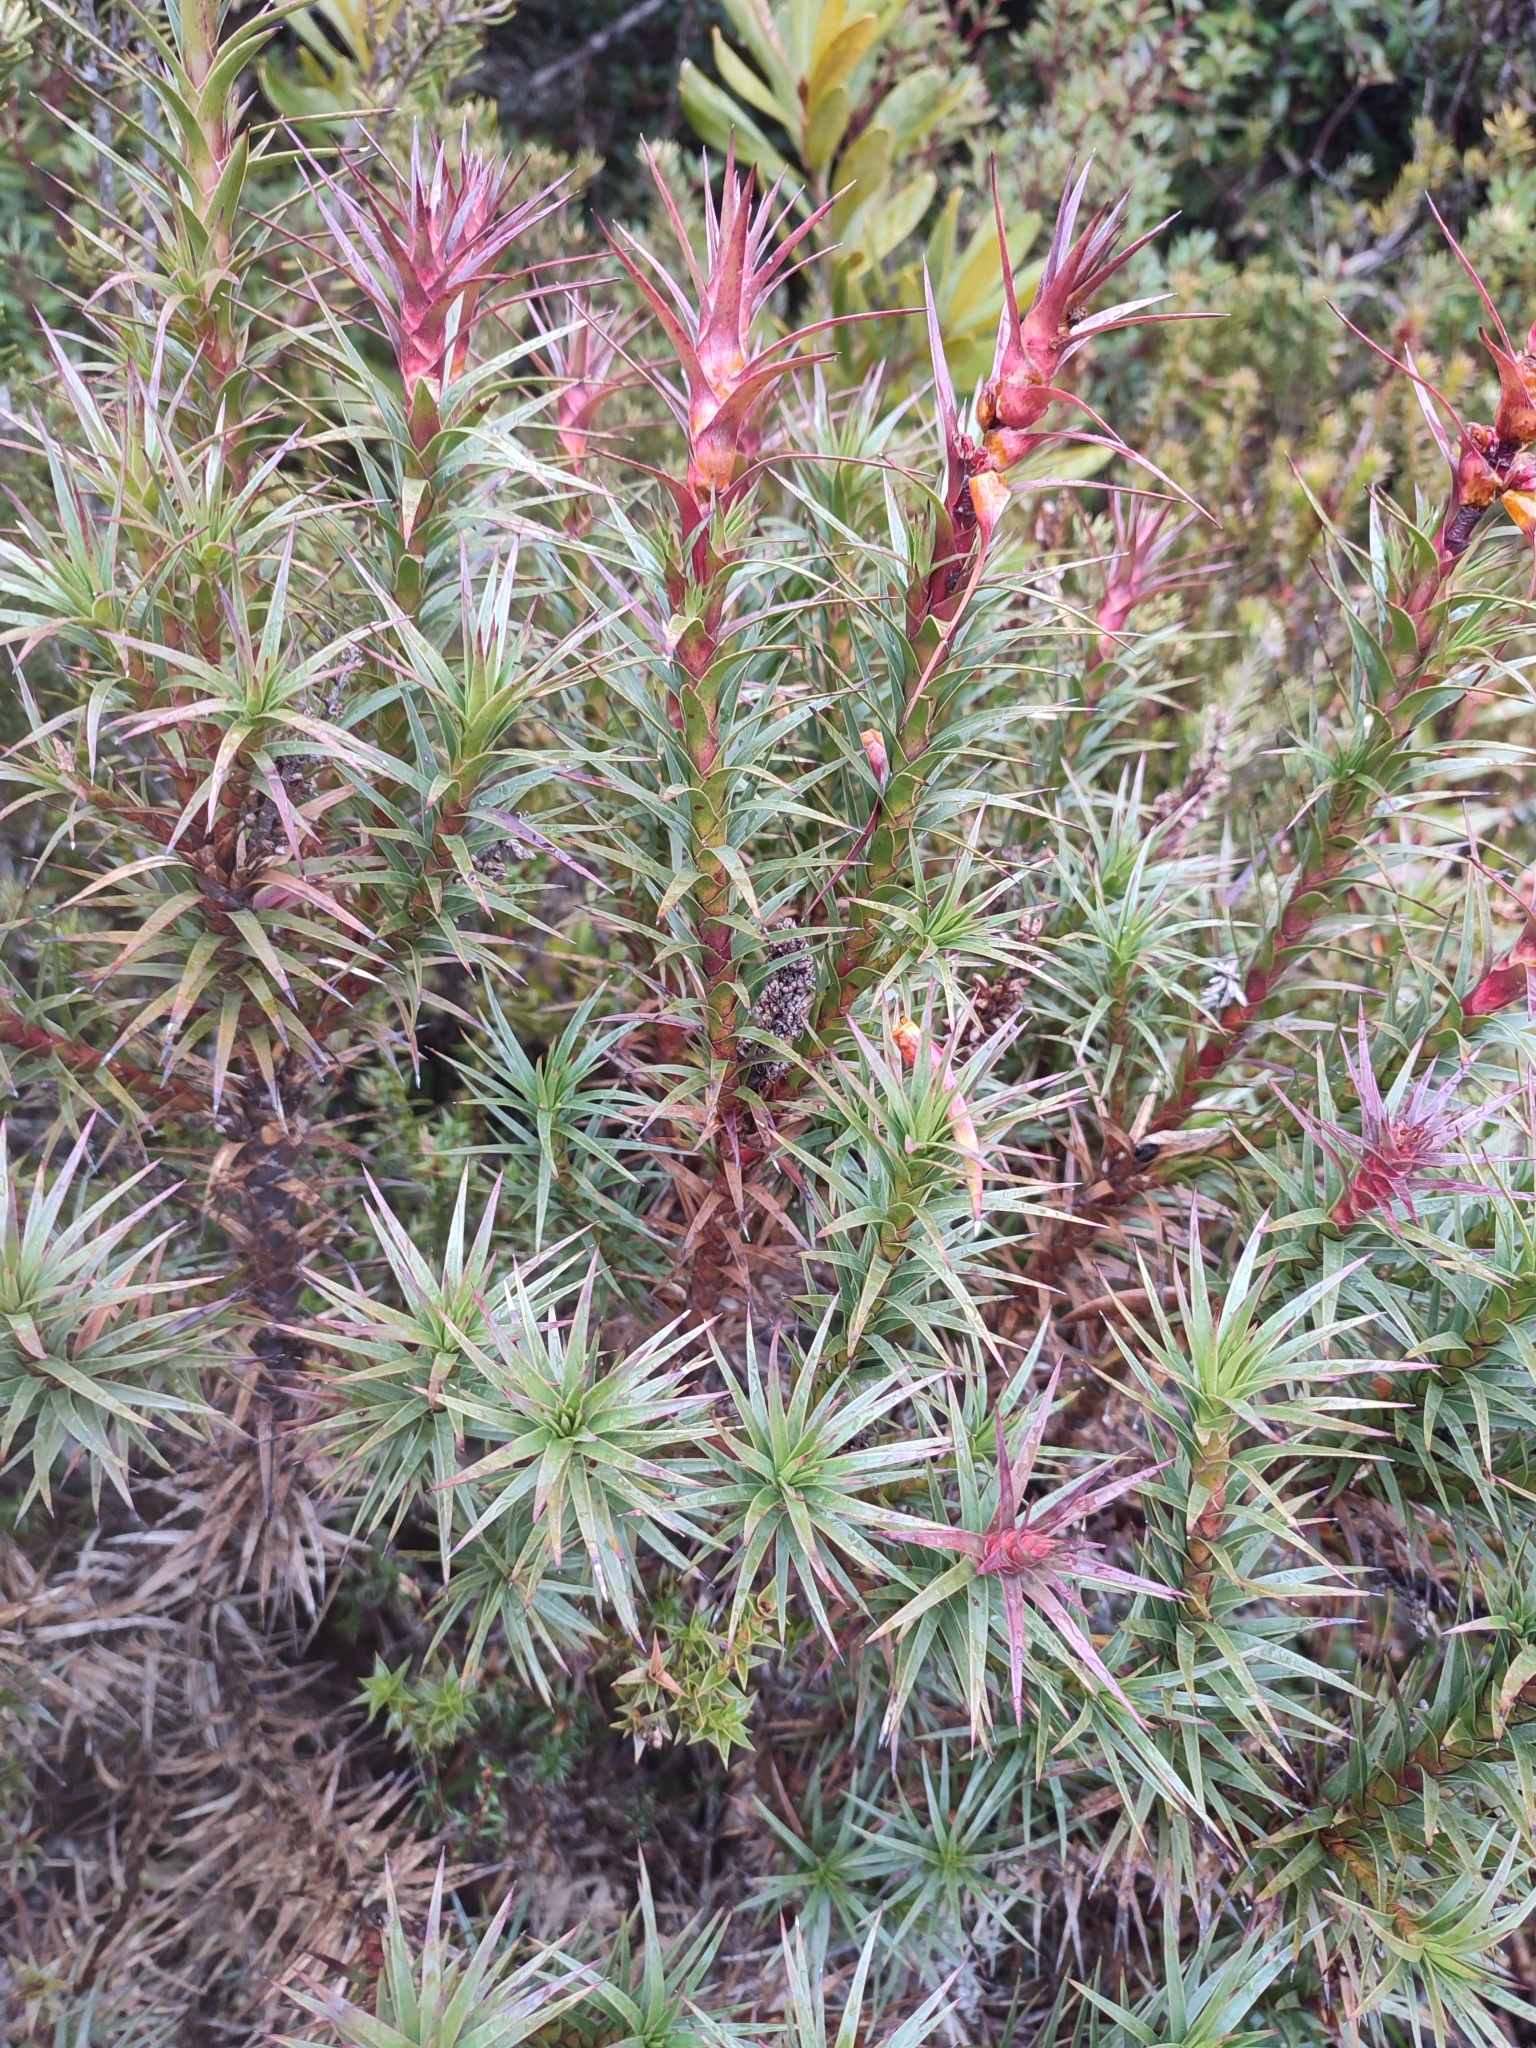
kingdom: Plantae
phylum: Tracheophyta
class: Magnoliopsida
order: Ericales
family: Ericaceae
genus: Dracophyllum
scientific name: Dracophyllum persistentifolium
